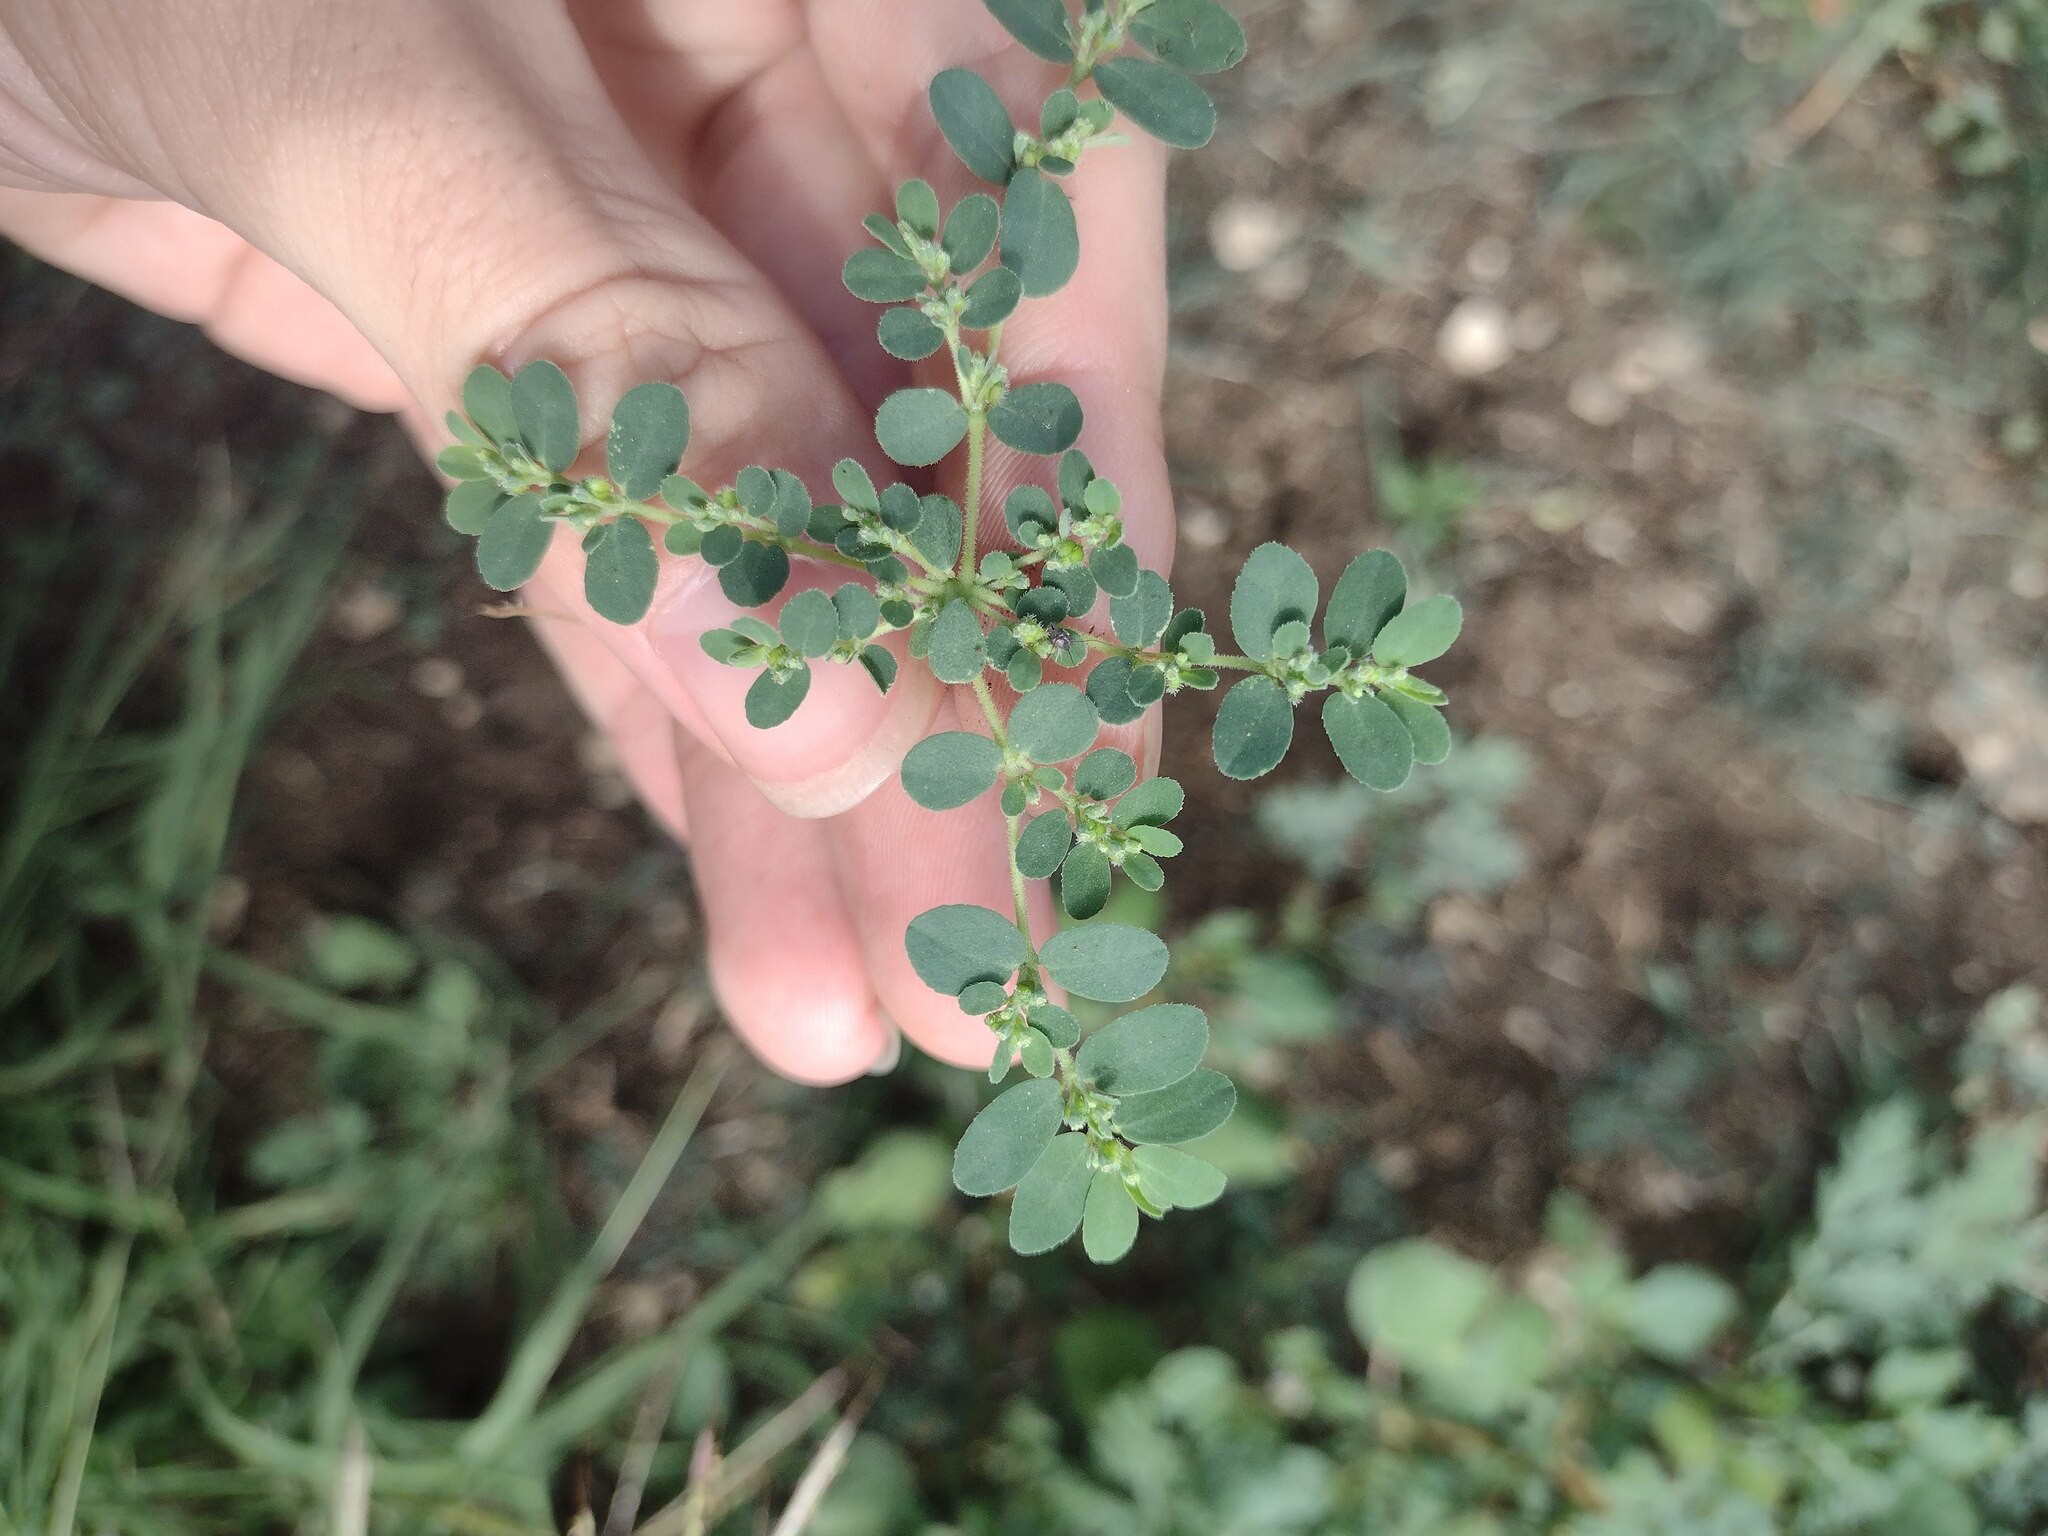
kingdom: Plantae
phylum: Tracheophyta
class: Magnoliopsida
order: Malpighiales
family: Euphorbiaceae
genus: Euphorbia
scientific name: Euphorbia prostrata
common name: Prostrate sandmat
